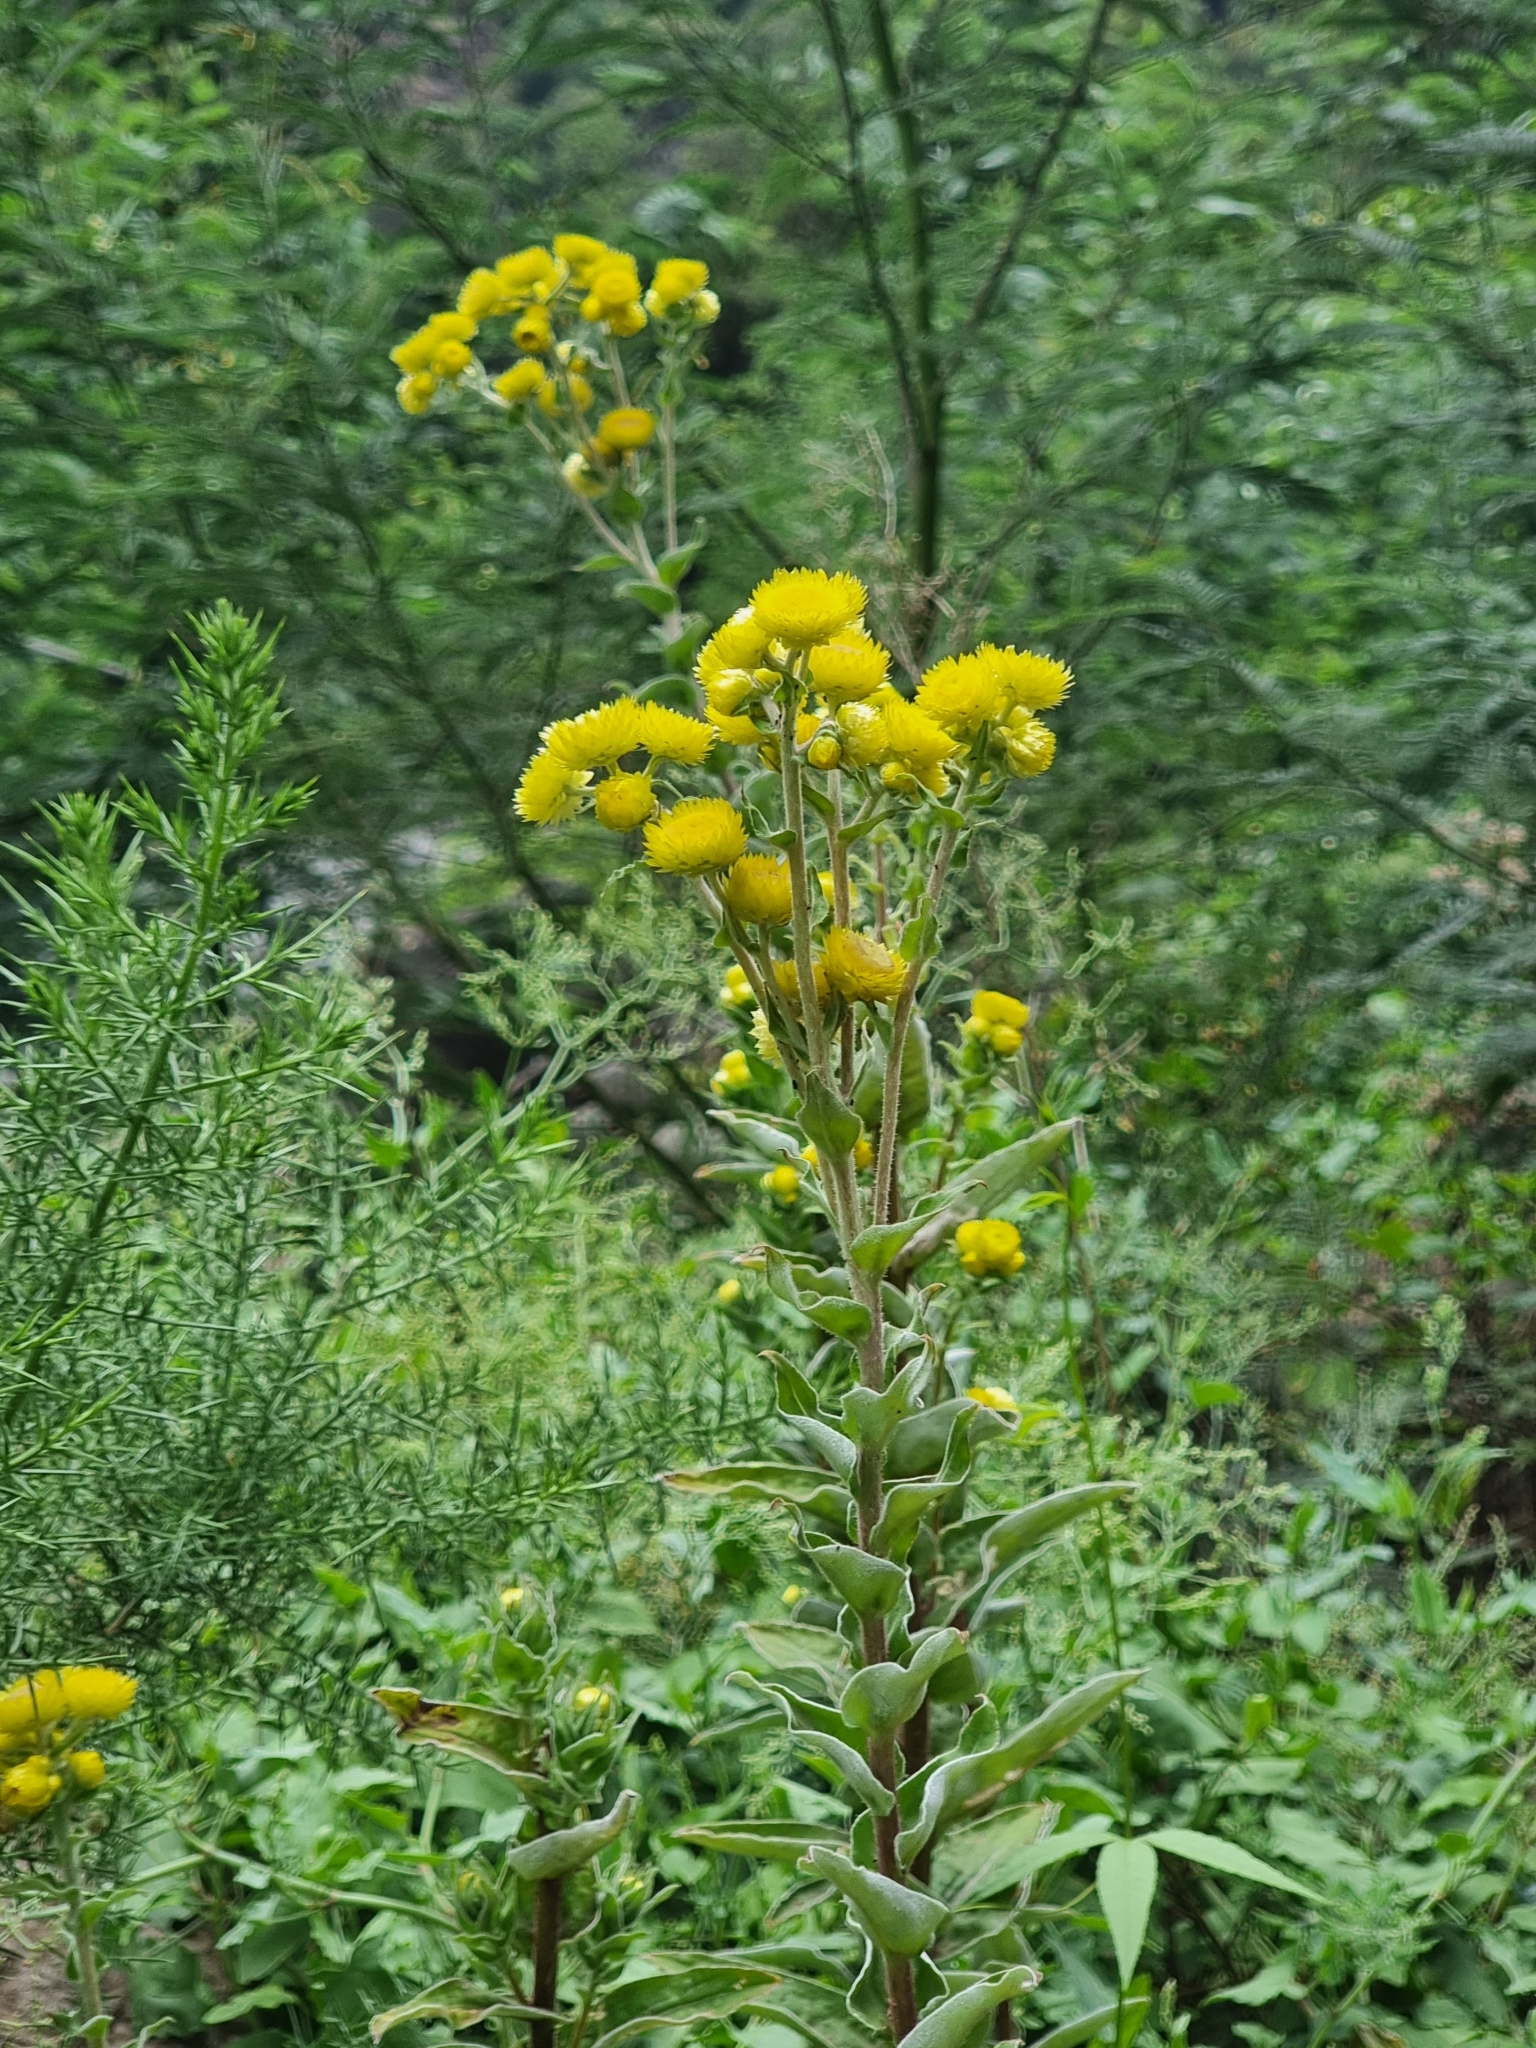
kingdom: Plantae
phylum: Tracheophyta
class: Magnoliopsida
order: Asterales
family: Asteraceae
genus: Helichrysum
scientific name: Helichrysum foetidum
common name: Stinking everlasting
